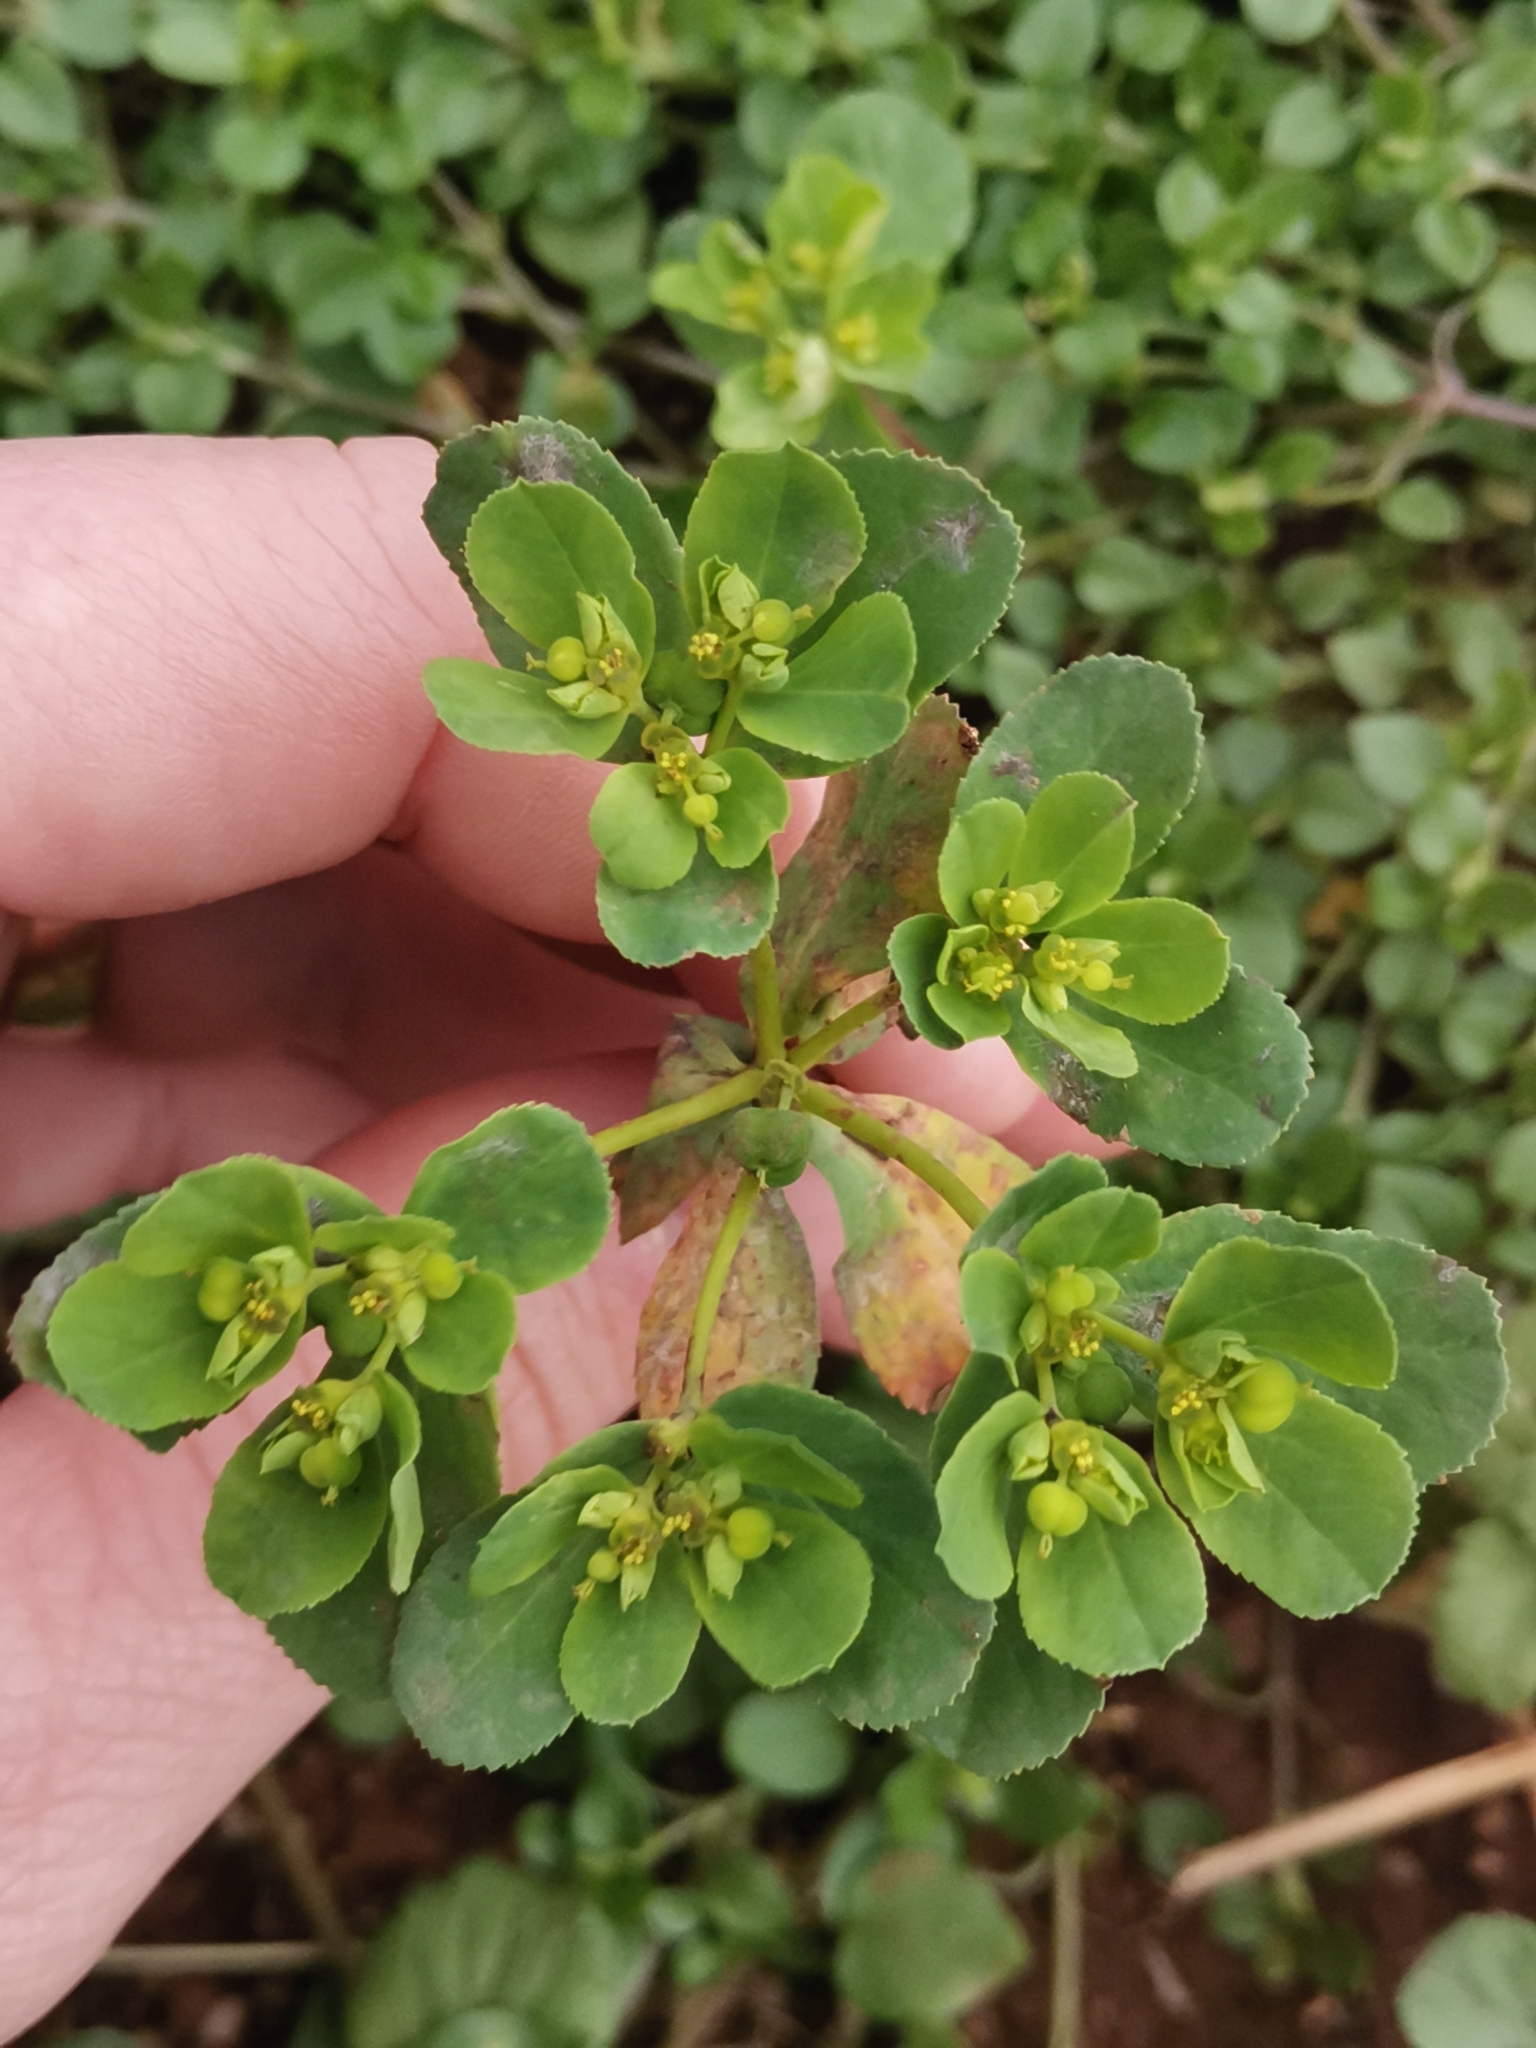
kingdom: Plantae
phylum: Tracheophyta
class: Magnoliopsida
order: Malpighiales
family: Euphorbiaceae
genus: Euphorbia
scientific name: Euphorbia helioscopia
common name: Sun spurge
